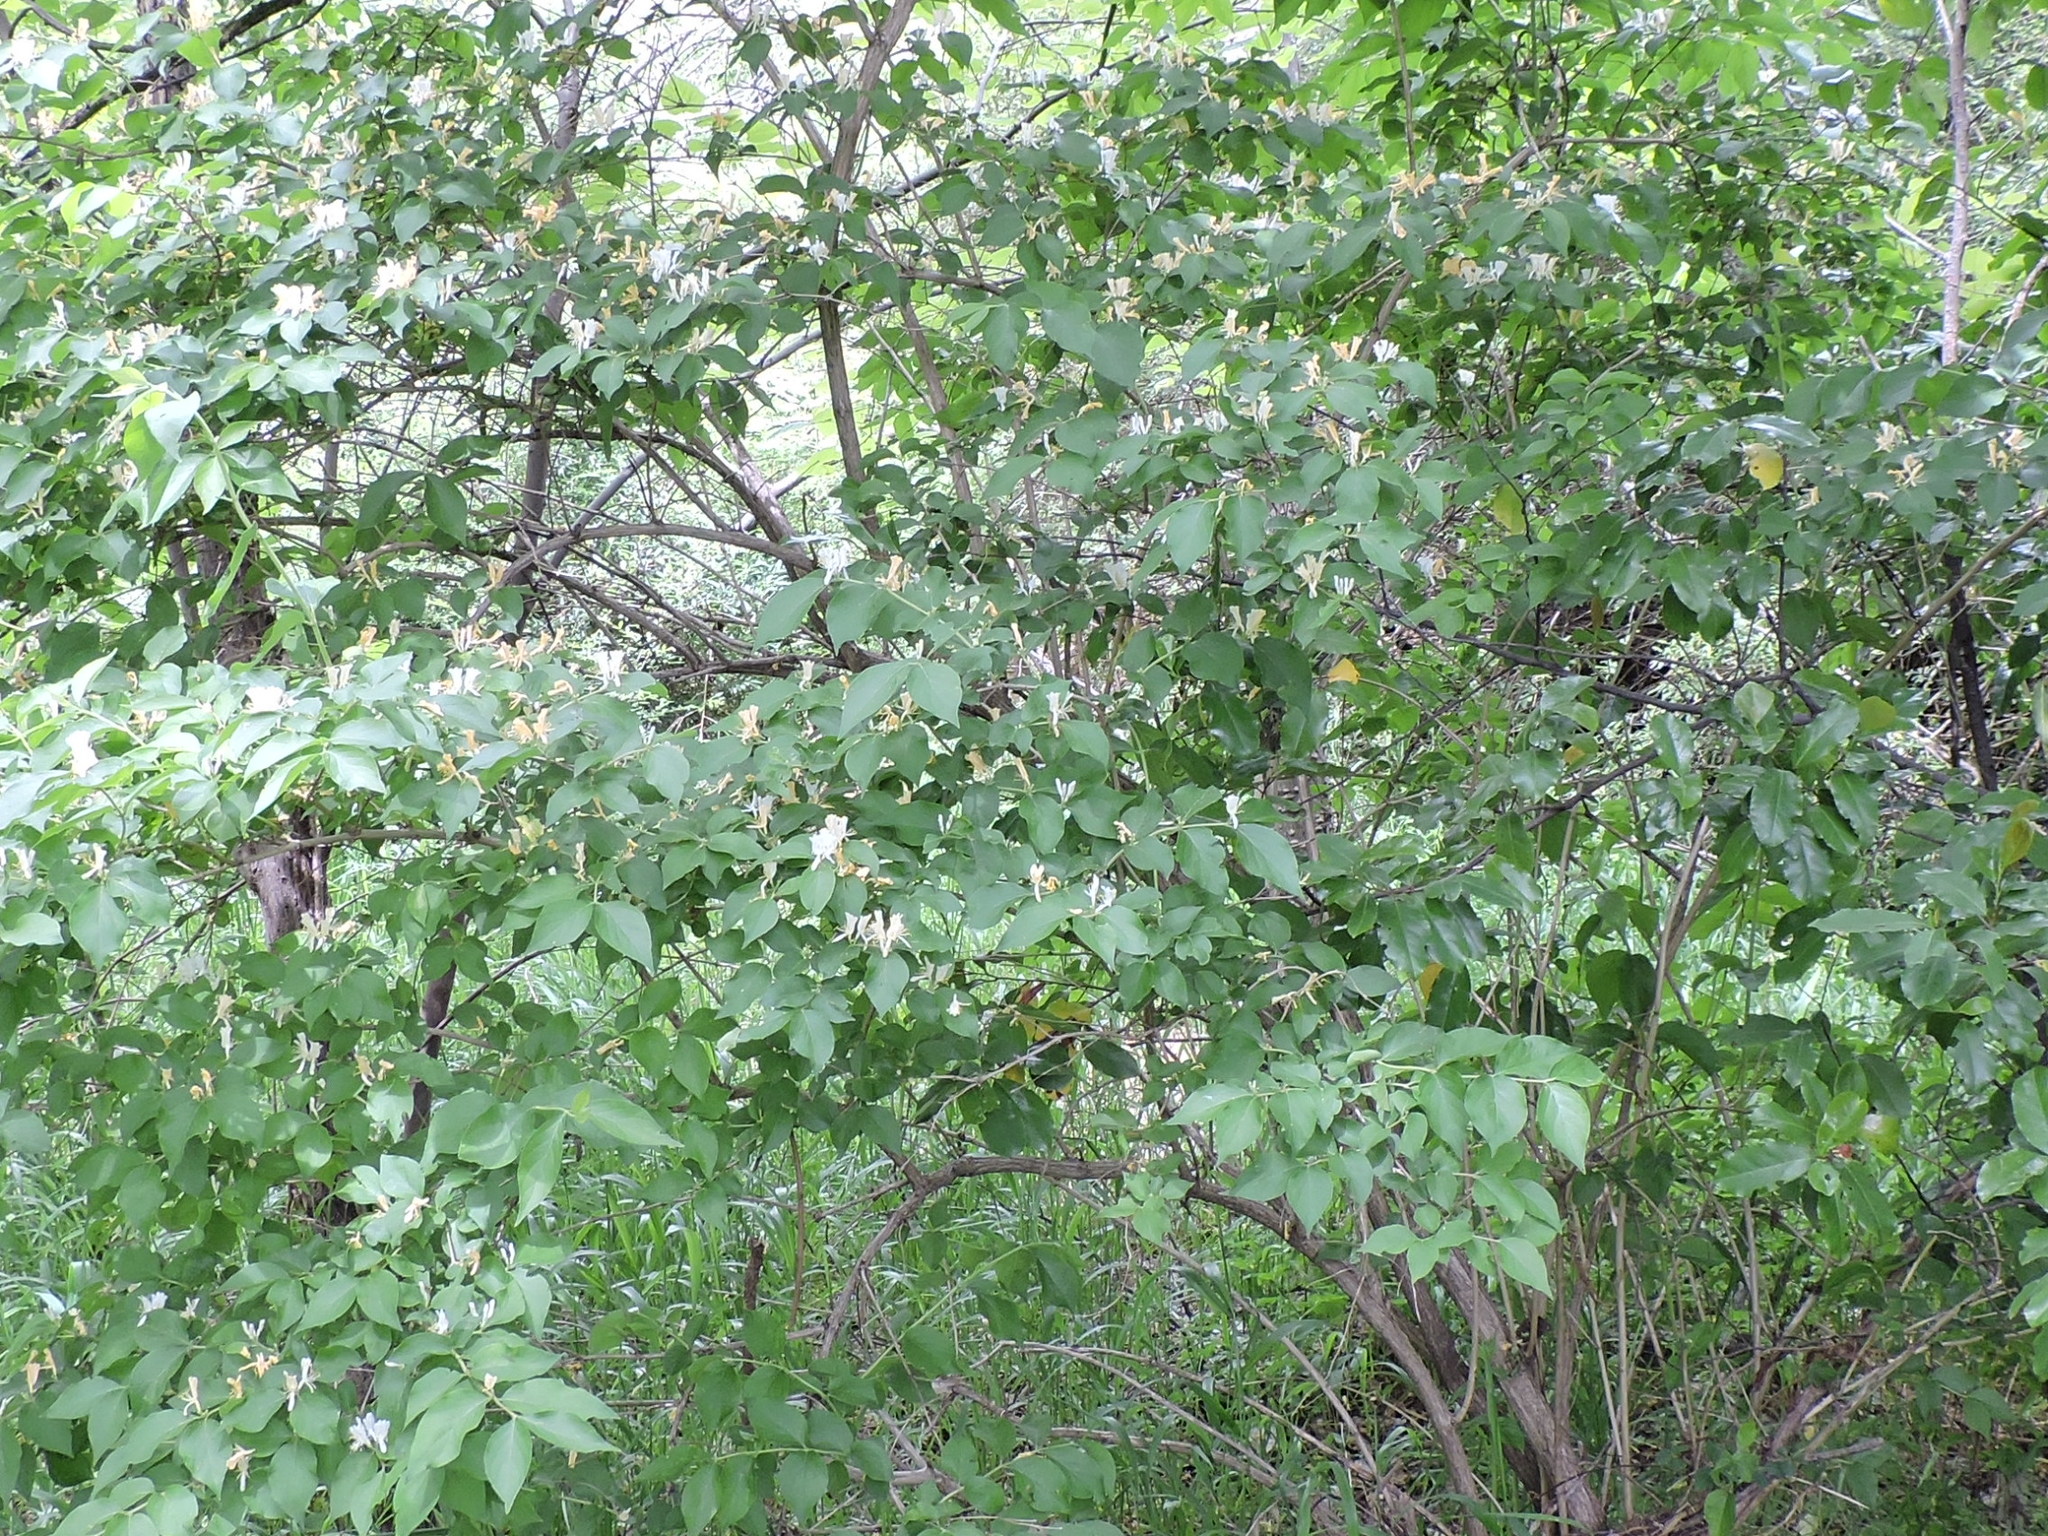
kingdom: Plantae
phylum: Tracheophyta
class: Magnoliopsida
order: Dipsacales
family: Caprifoliaceae
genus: Lonicera
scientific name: Lonicera maackii
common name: Amur honeysuckle
